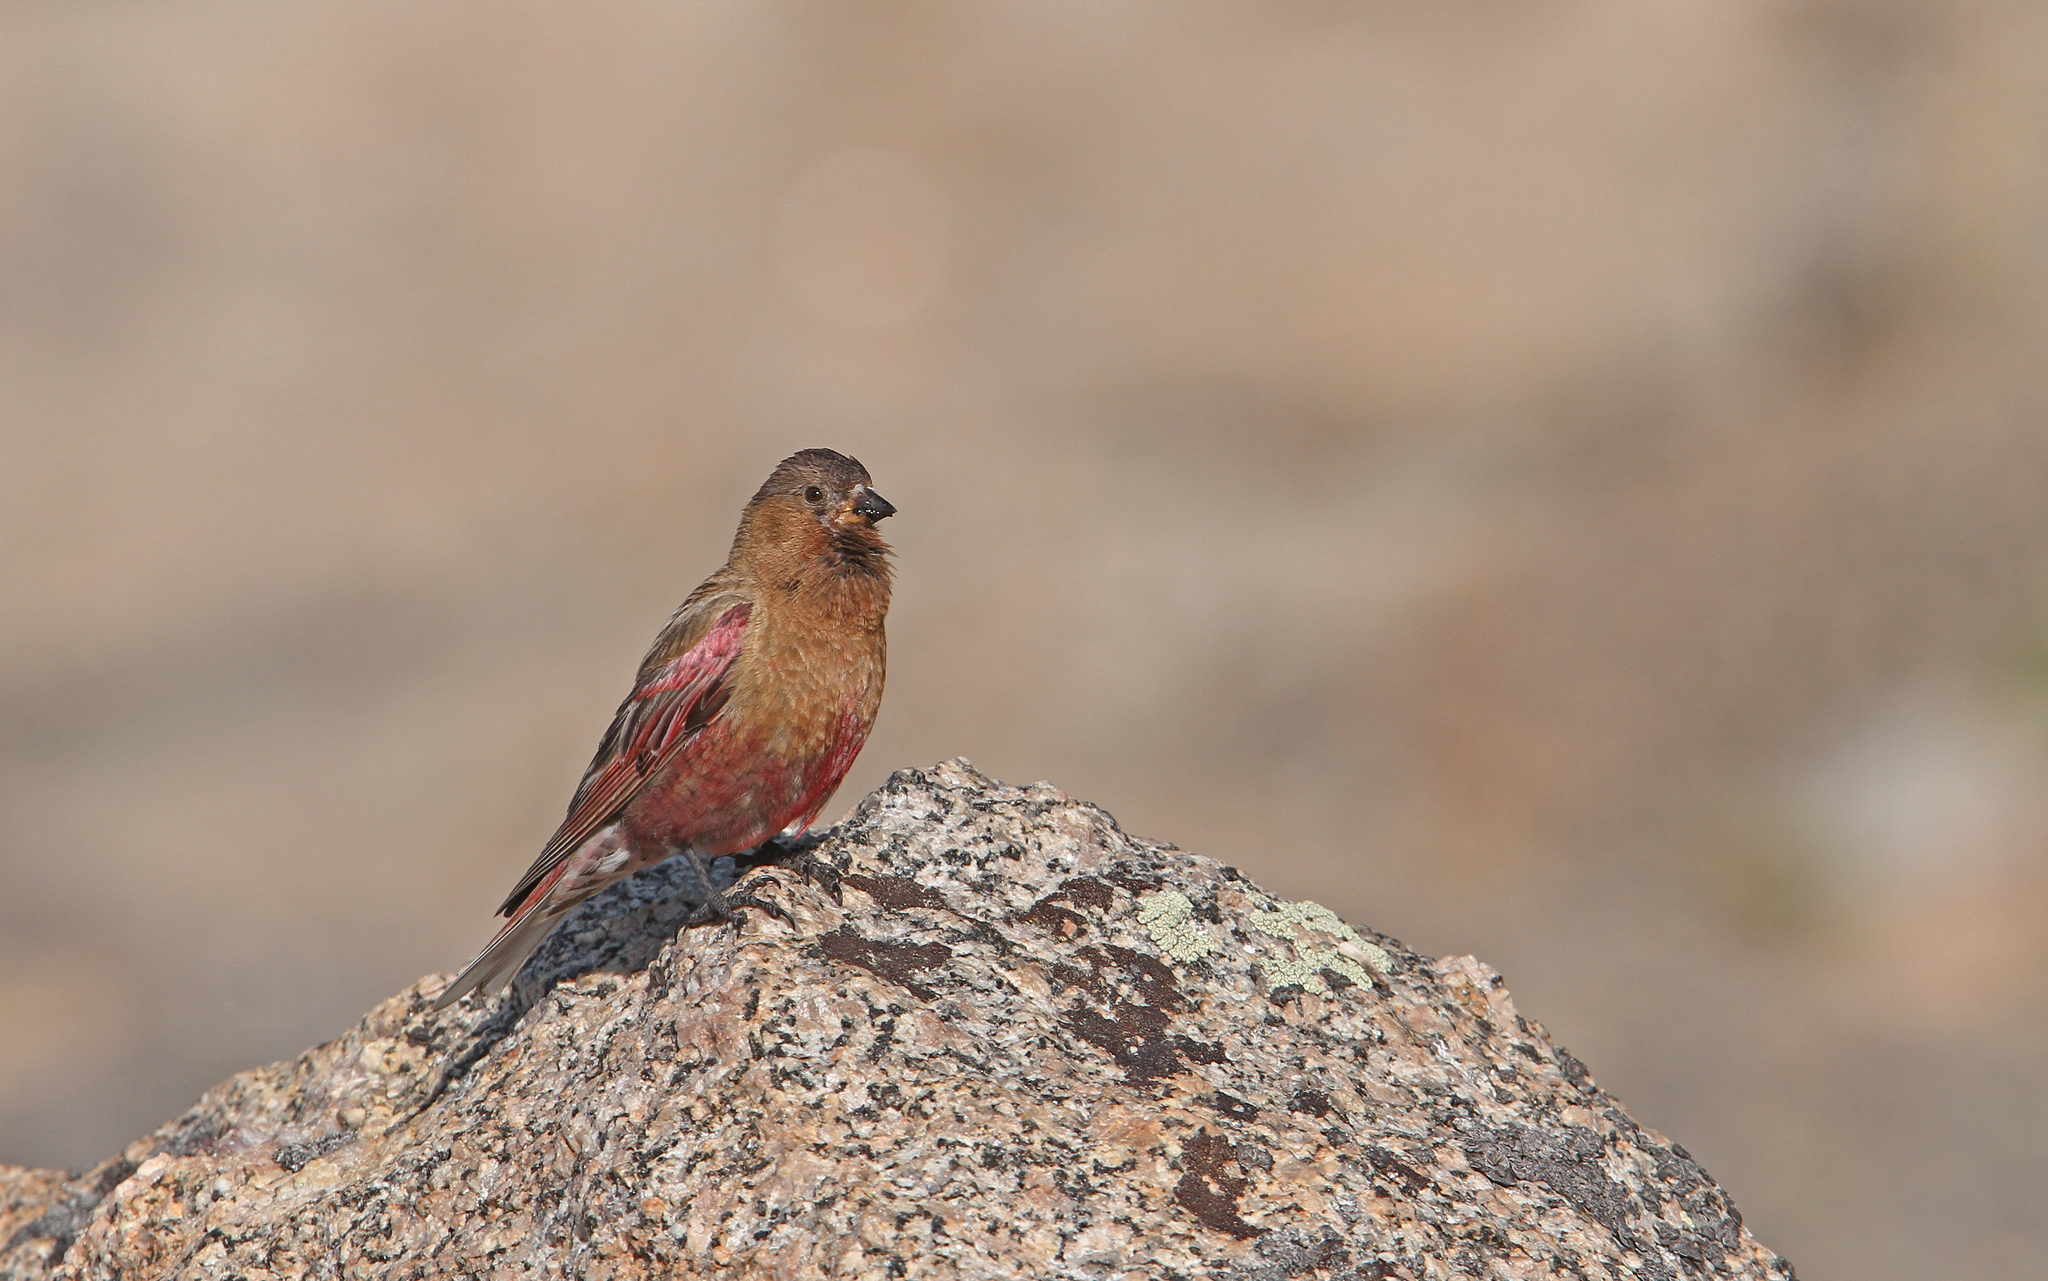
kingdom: Animalia
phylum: Chordata
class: Aves
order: Passeriformes
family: Fringillidae
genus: Leucosticte
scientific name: Leucosticte australis
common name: Brown-capped rosy-finch
